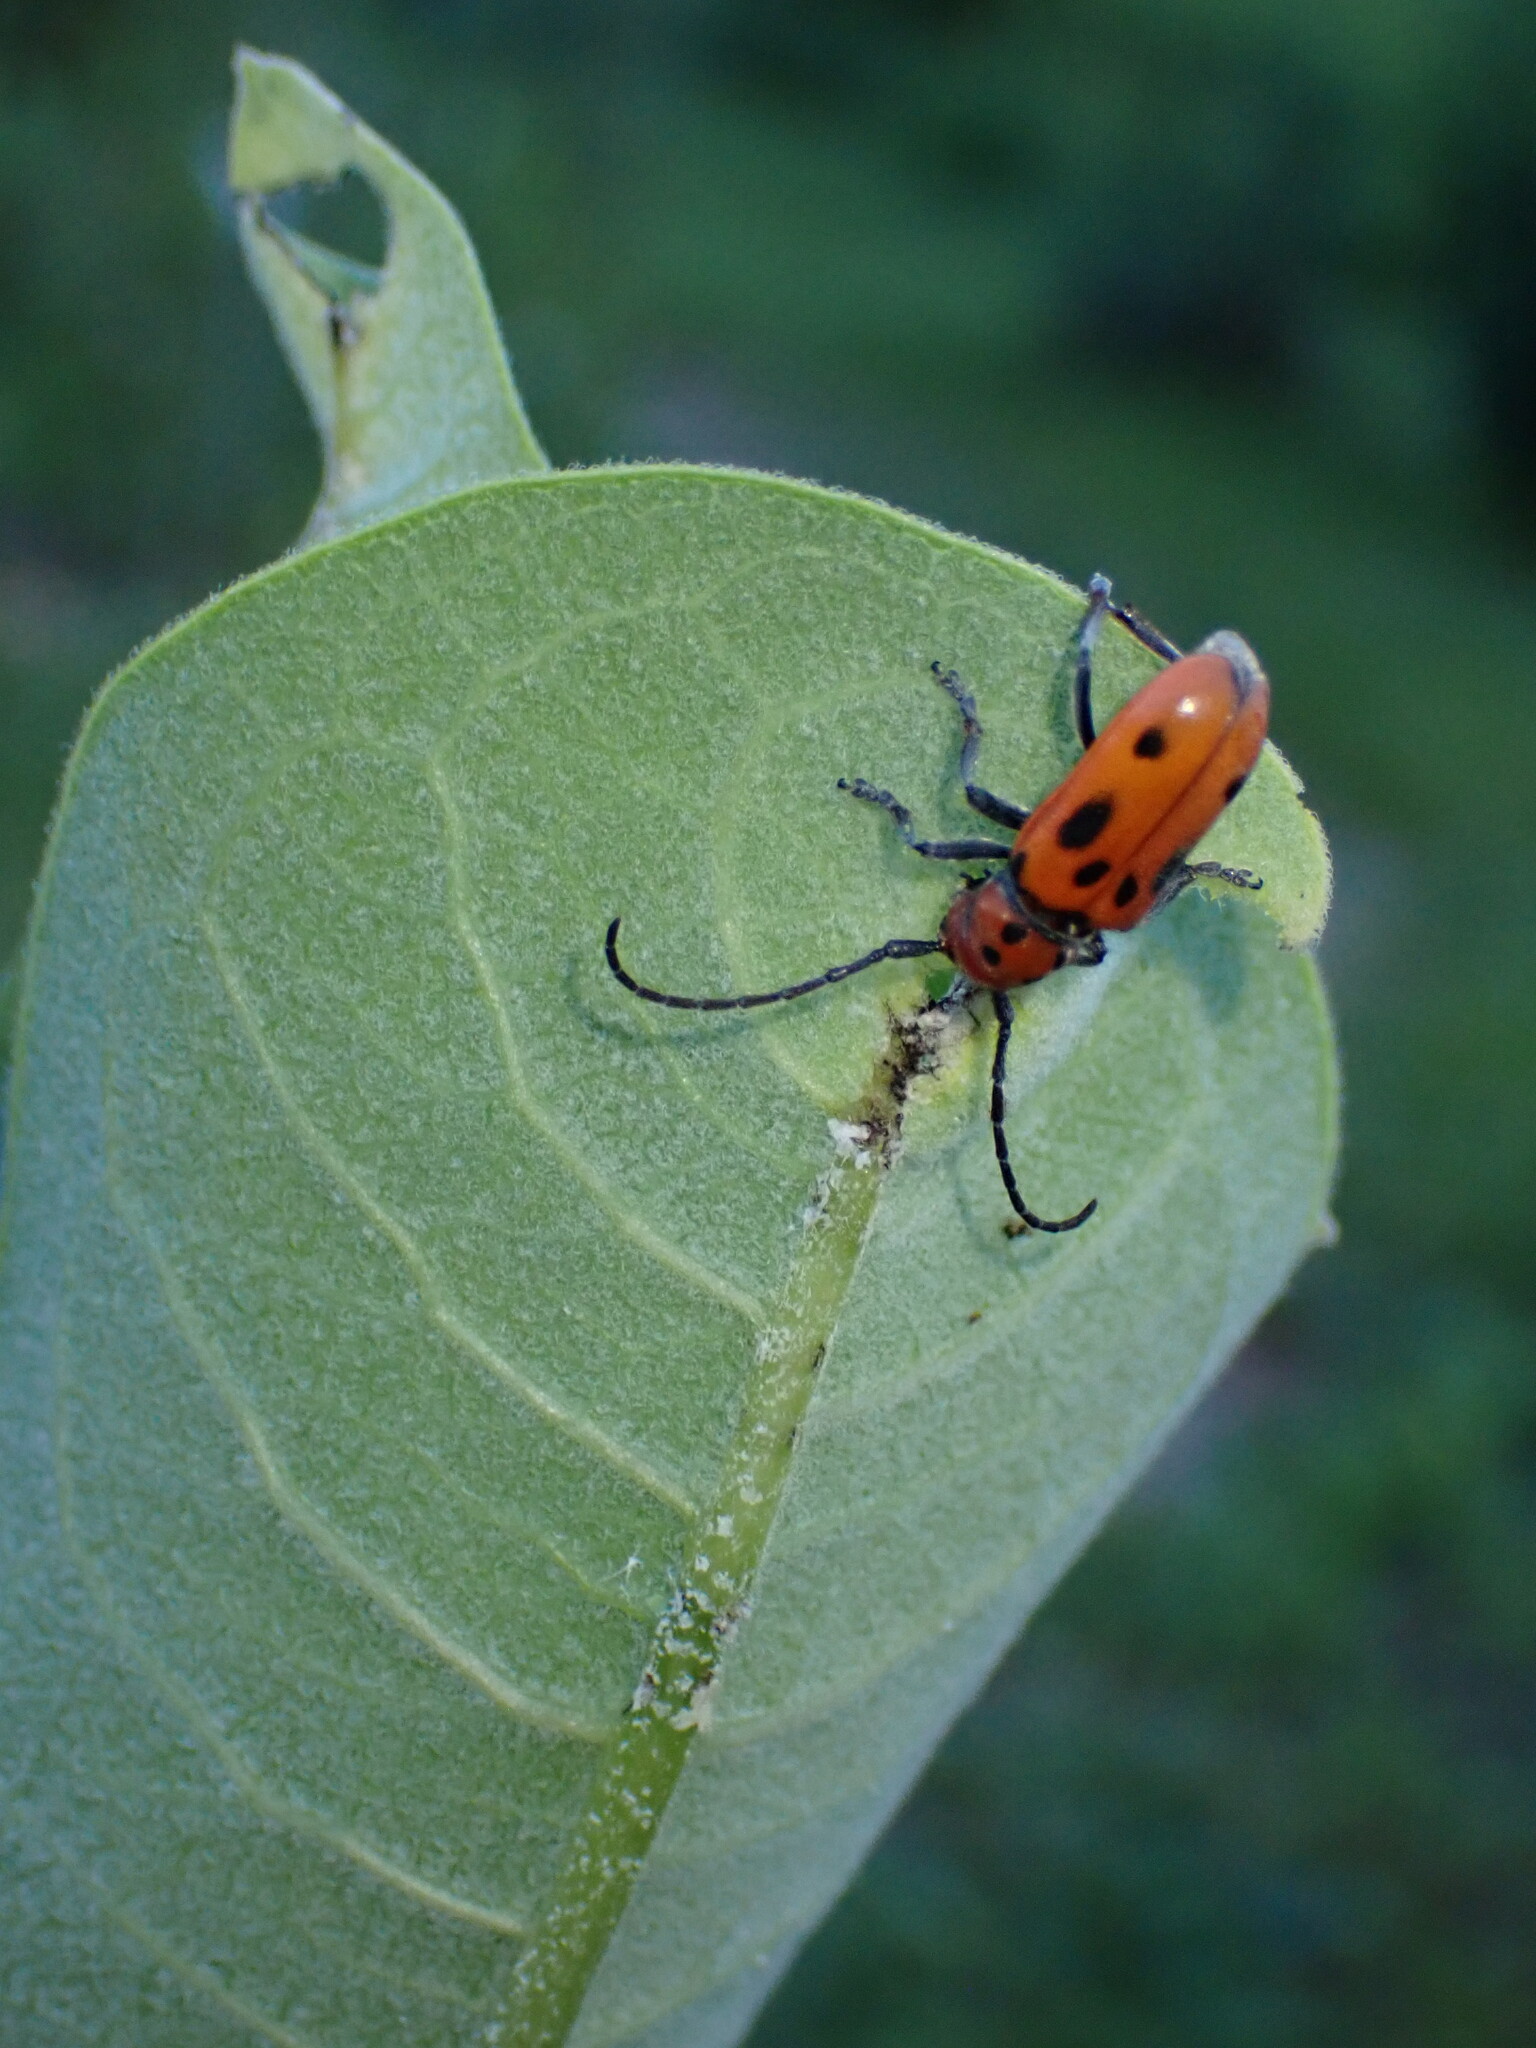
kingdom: Animalia
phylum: Arthropoda
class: Insecta
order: Coleoptera
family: Cerambycidae
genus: Tetraopes
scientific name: Tetraopes tetrophthalmus
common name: Red milkweed beetle
